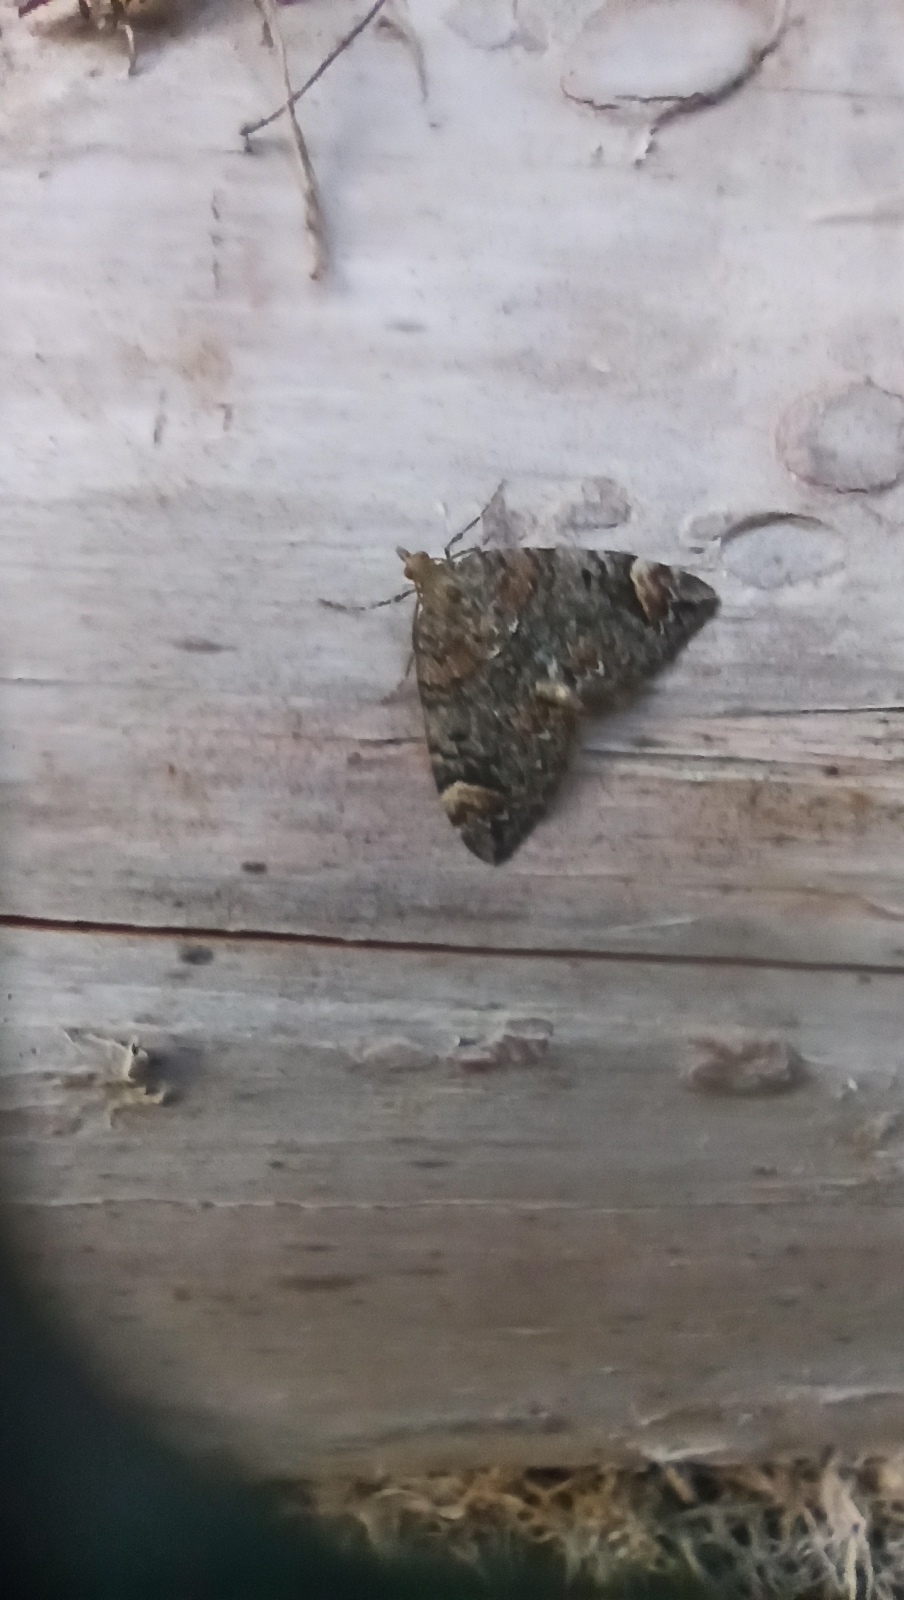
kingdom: Animalia
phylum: Arthropoda
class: Insecta
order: Lepidoptera
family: Geometridae
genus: Dysstroma
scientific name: Dysstroma citrata
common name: Dark marbled carpet
